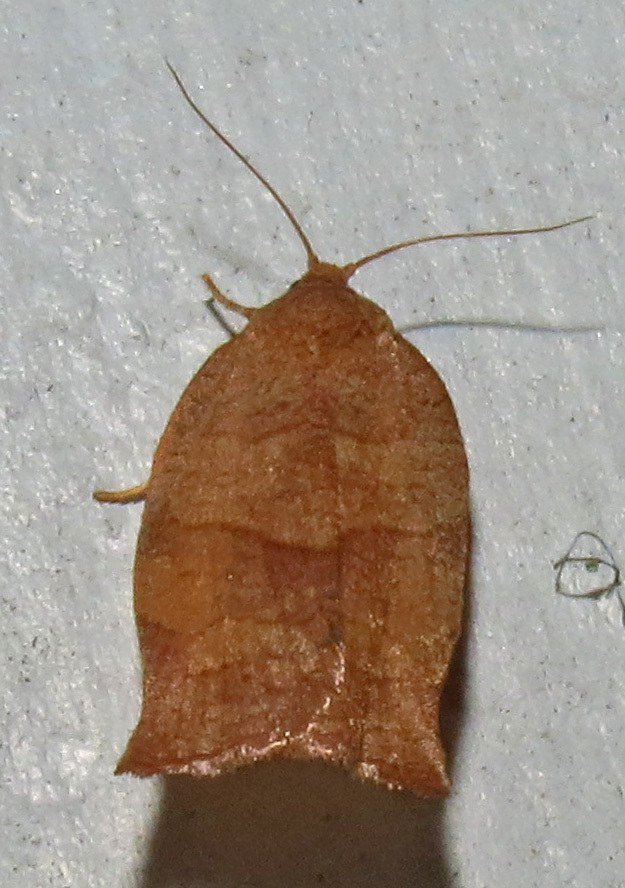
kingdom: Animalia
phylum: Arthropoda
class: Insecta
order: Lepidoptera
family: Tortricidae
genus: Choristoneura
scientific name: Choristoneura rosaceana
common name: Oblique-banded leafroller moth
